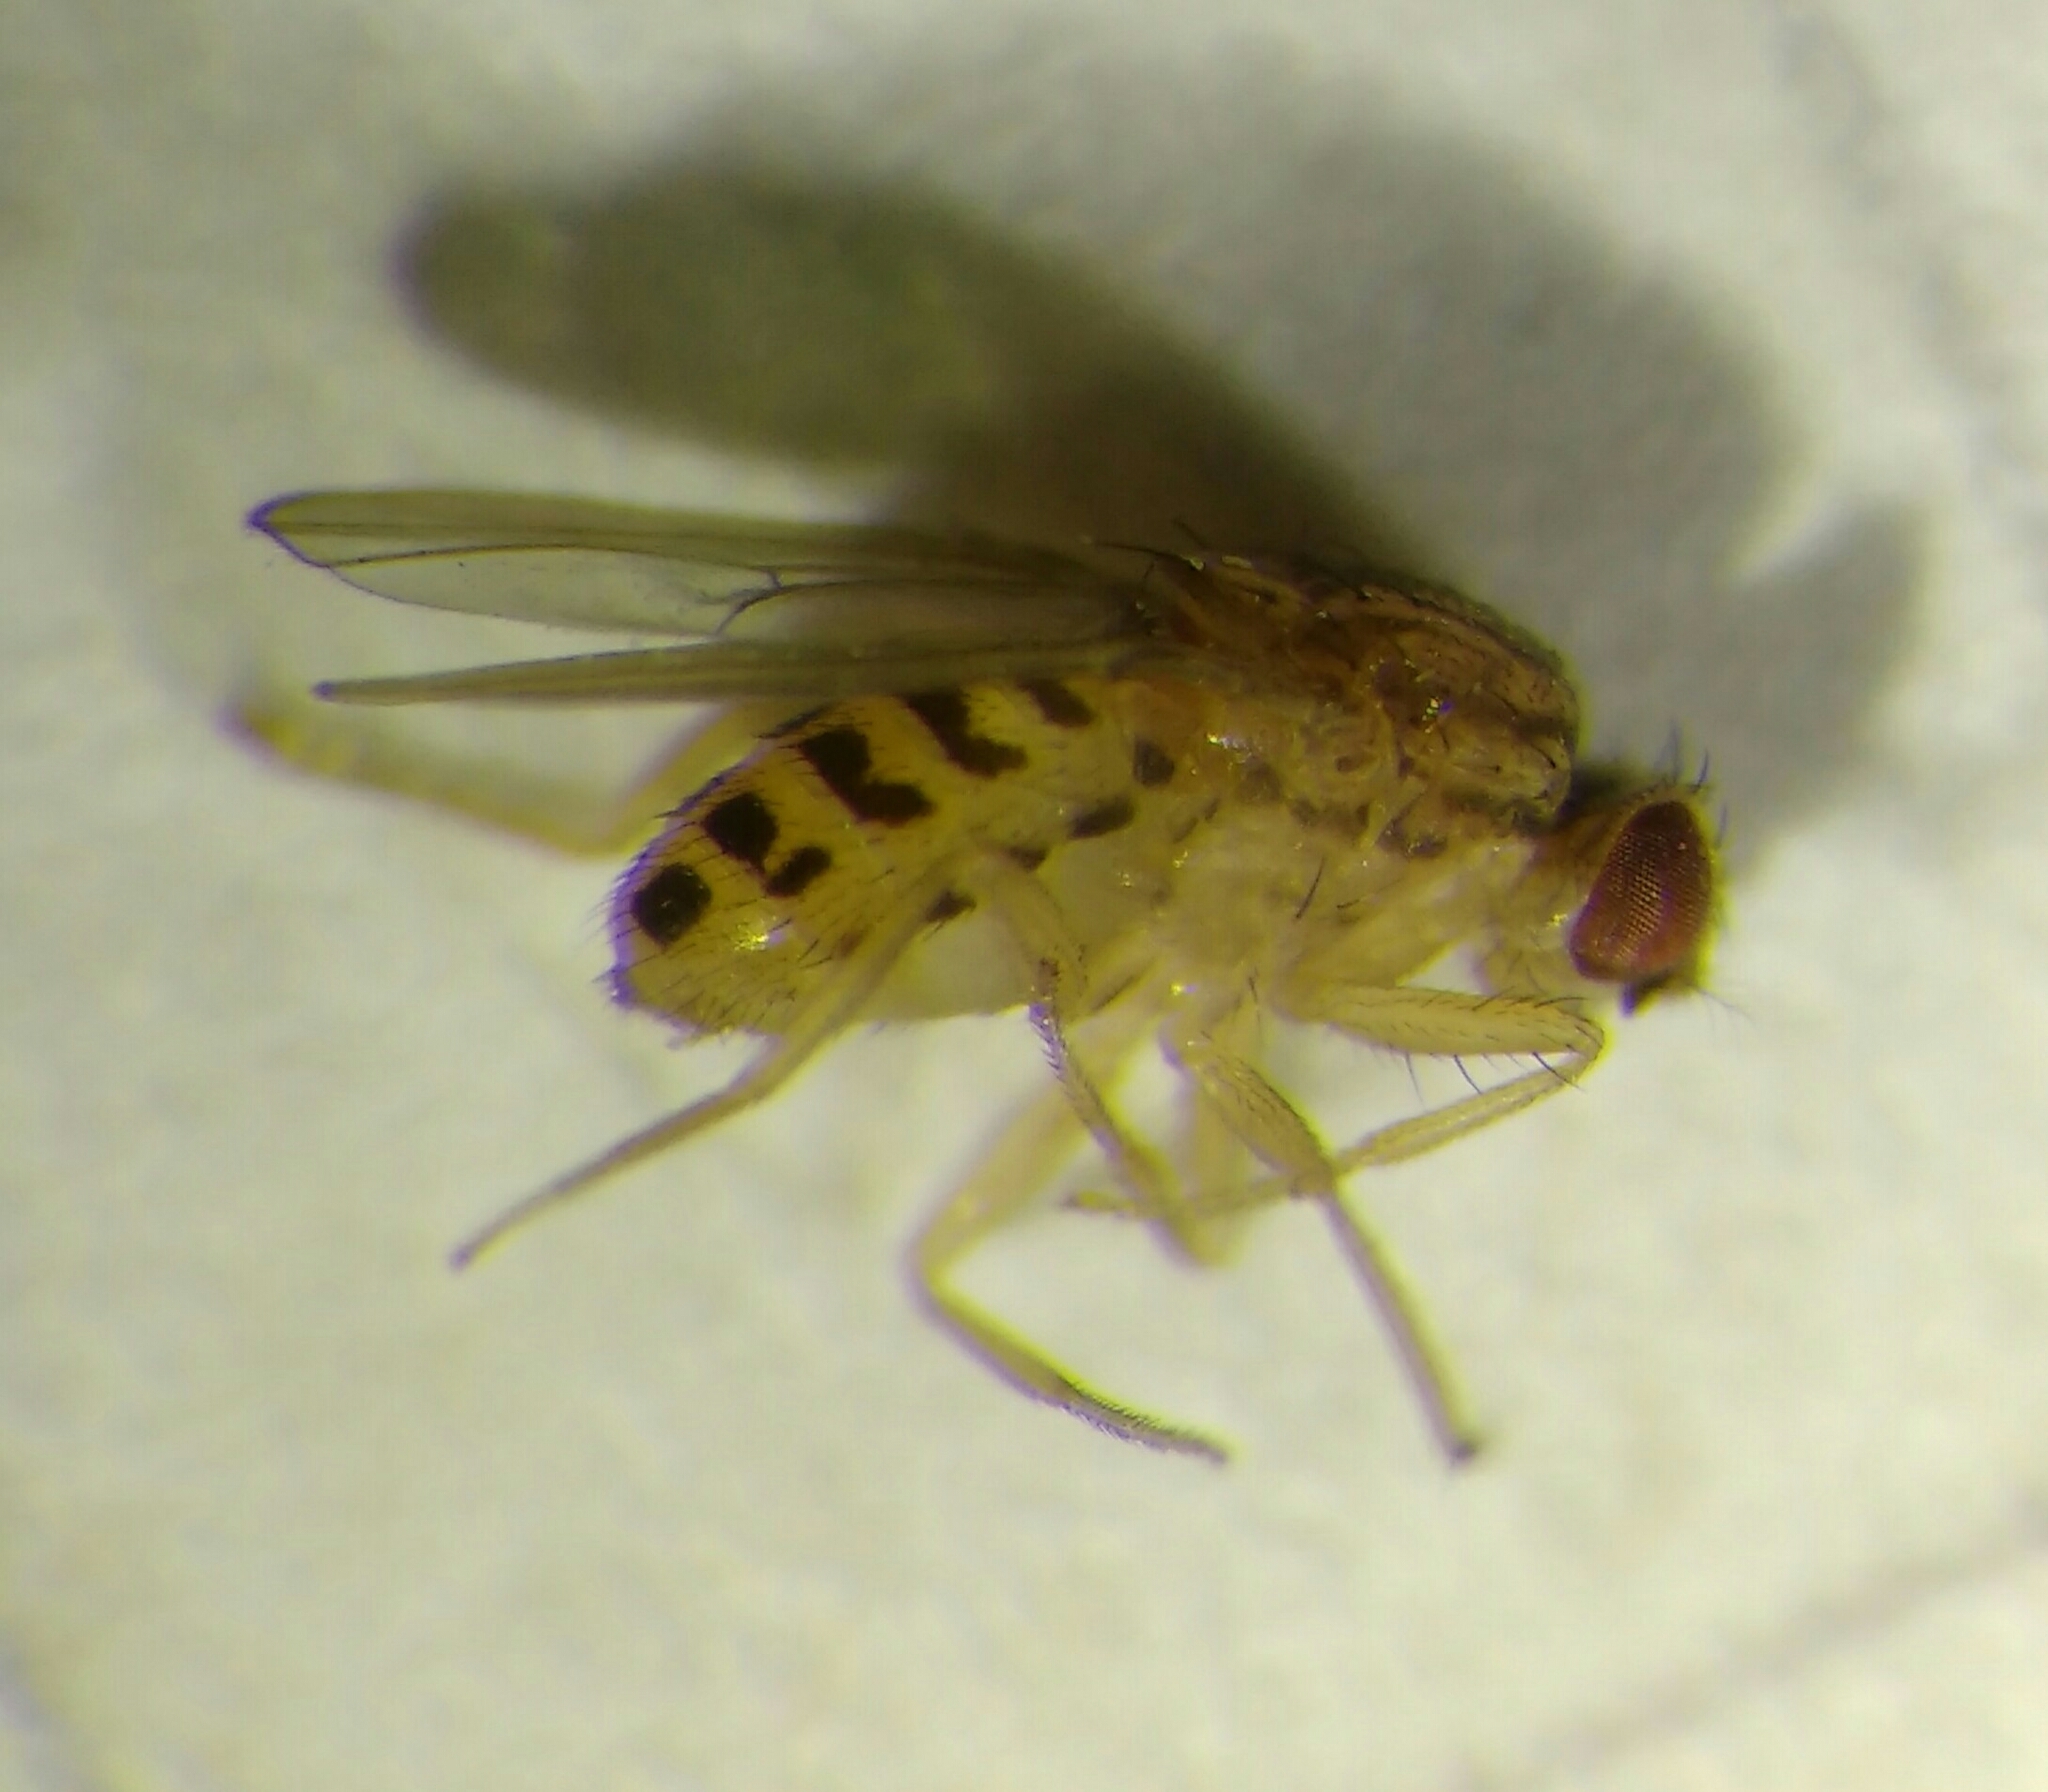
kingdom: Animalia
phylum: Arthropoda
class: Insecta
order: Diptera
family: Drosophilidae
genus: Drosophila
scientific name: Drosophila busckii
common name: Pomace fly
